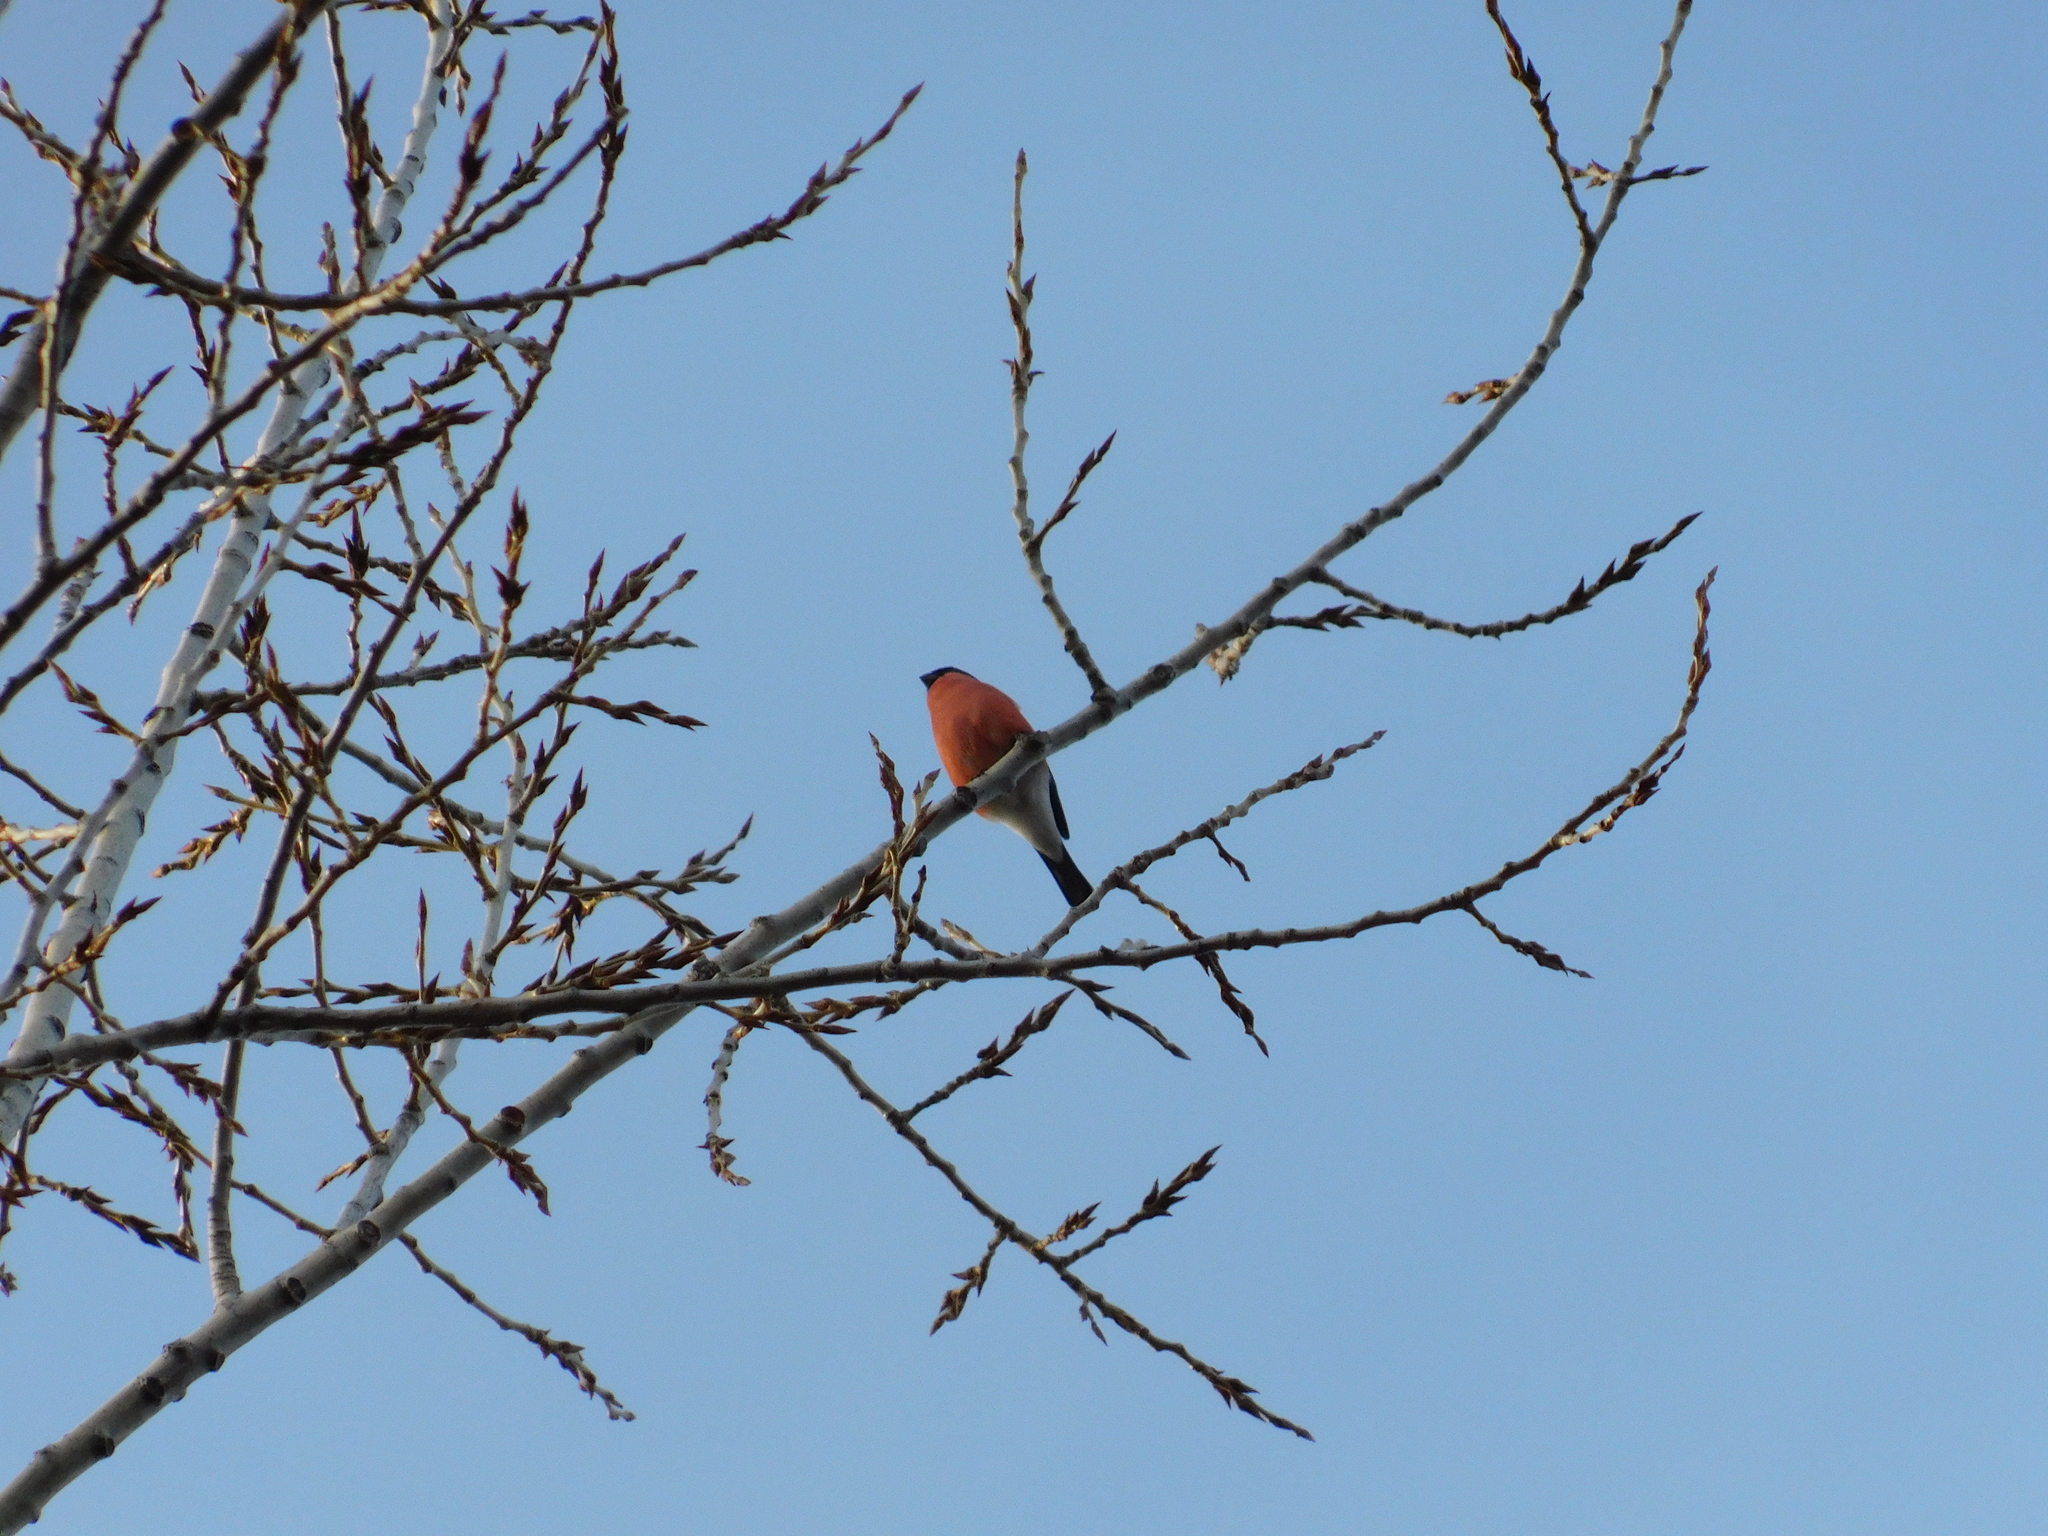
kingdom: Animalia
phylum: Chordata
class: Aves
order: Passeriformes
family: Fringillidae
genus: Pyrrhula
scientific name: Pyrrhula pyrrhula
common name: Eurasian bullfinch
